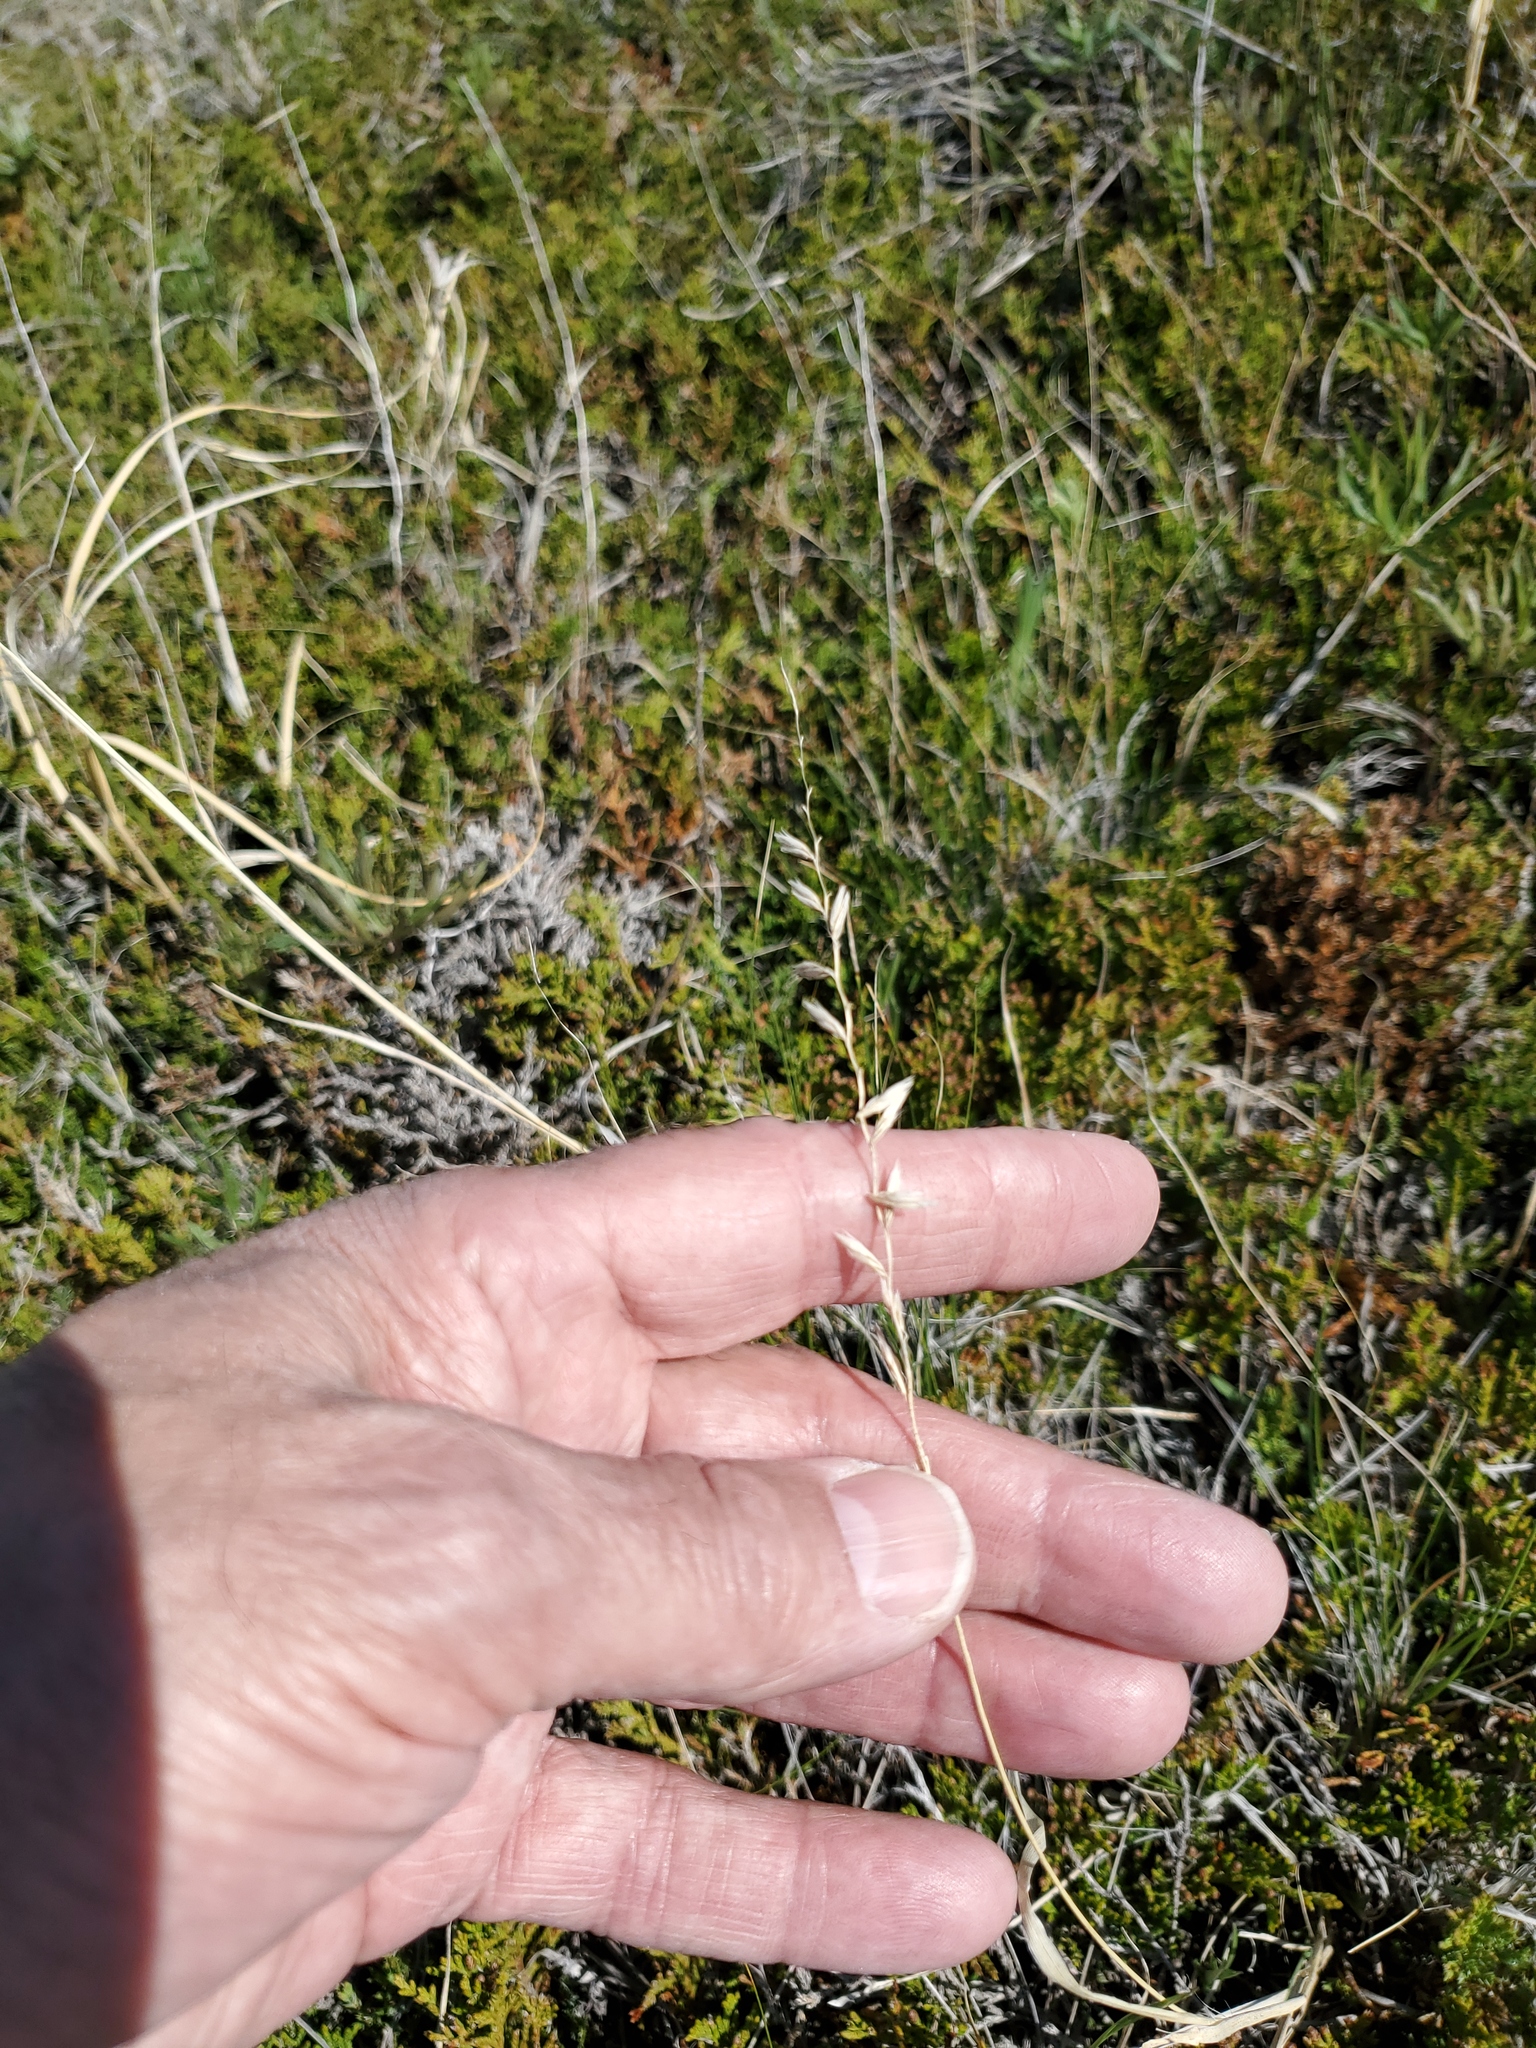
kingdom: Plantae
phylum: Tracheophyta
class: Liliopsida
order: Poales
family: Poaceae
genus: Bouteloua
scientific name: Bouteloua curtipendula
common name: Side-oats grama
